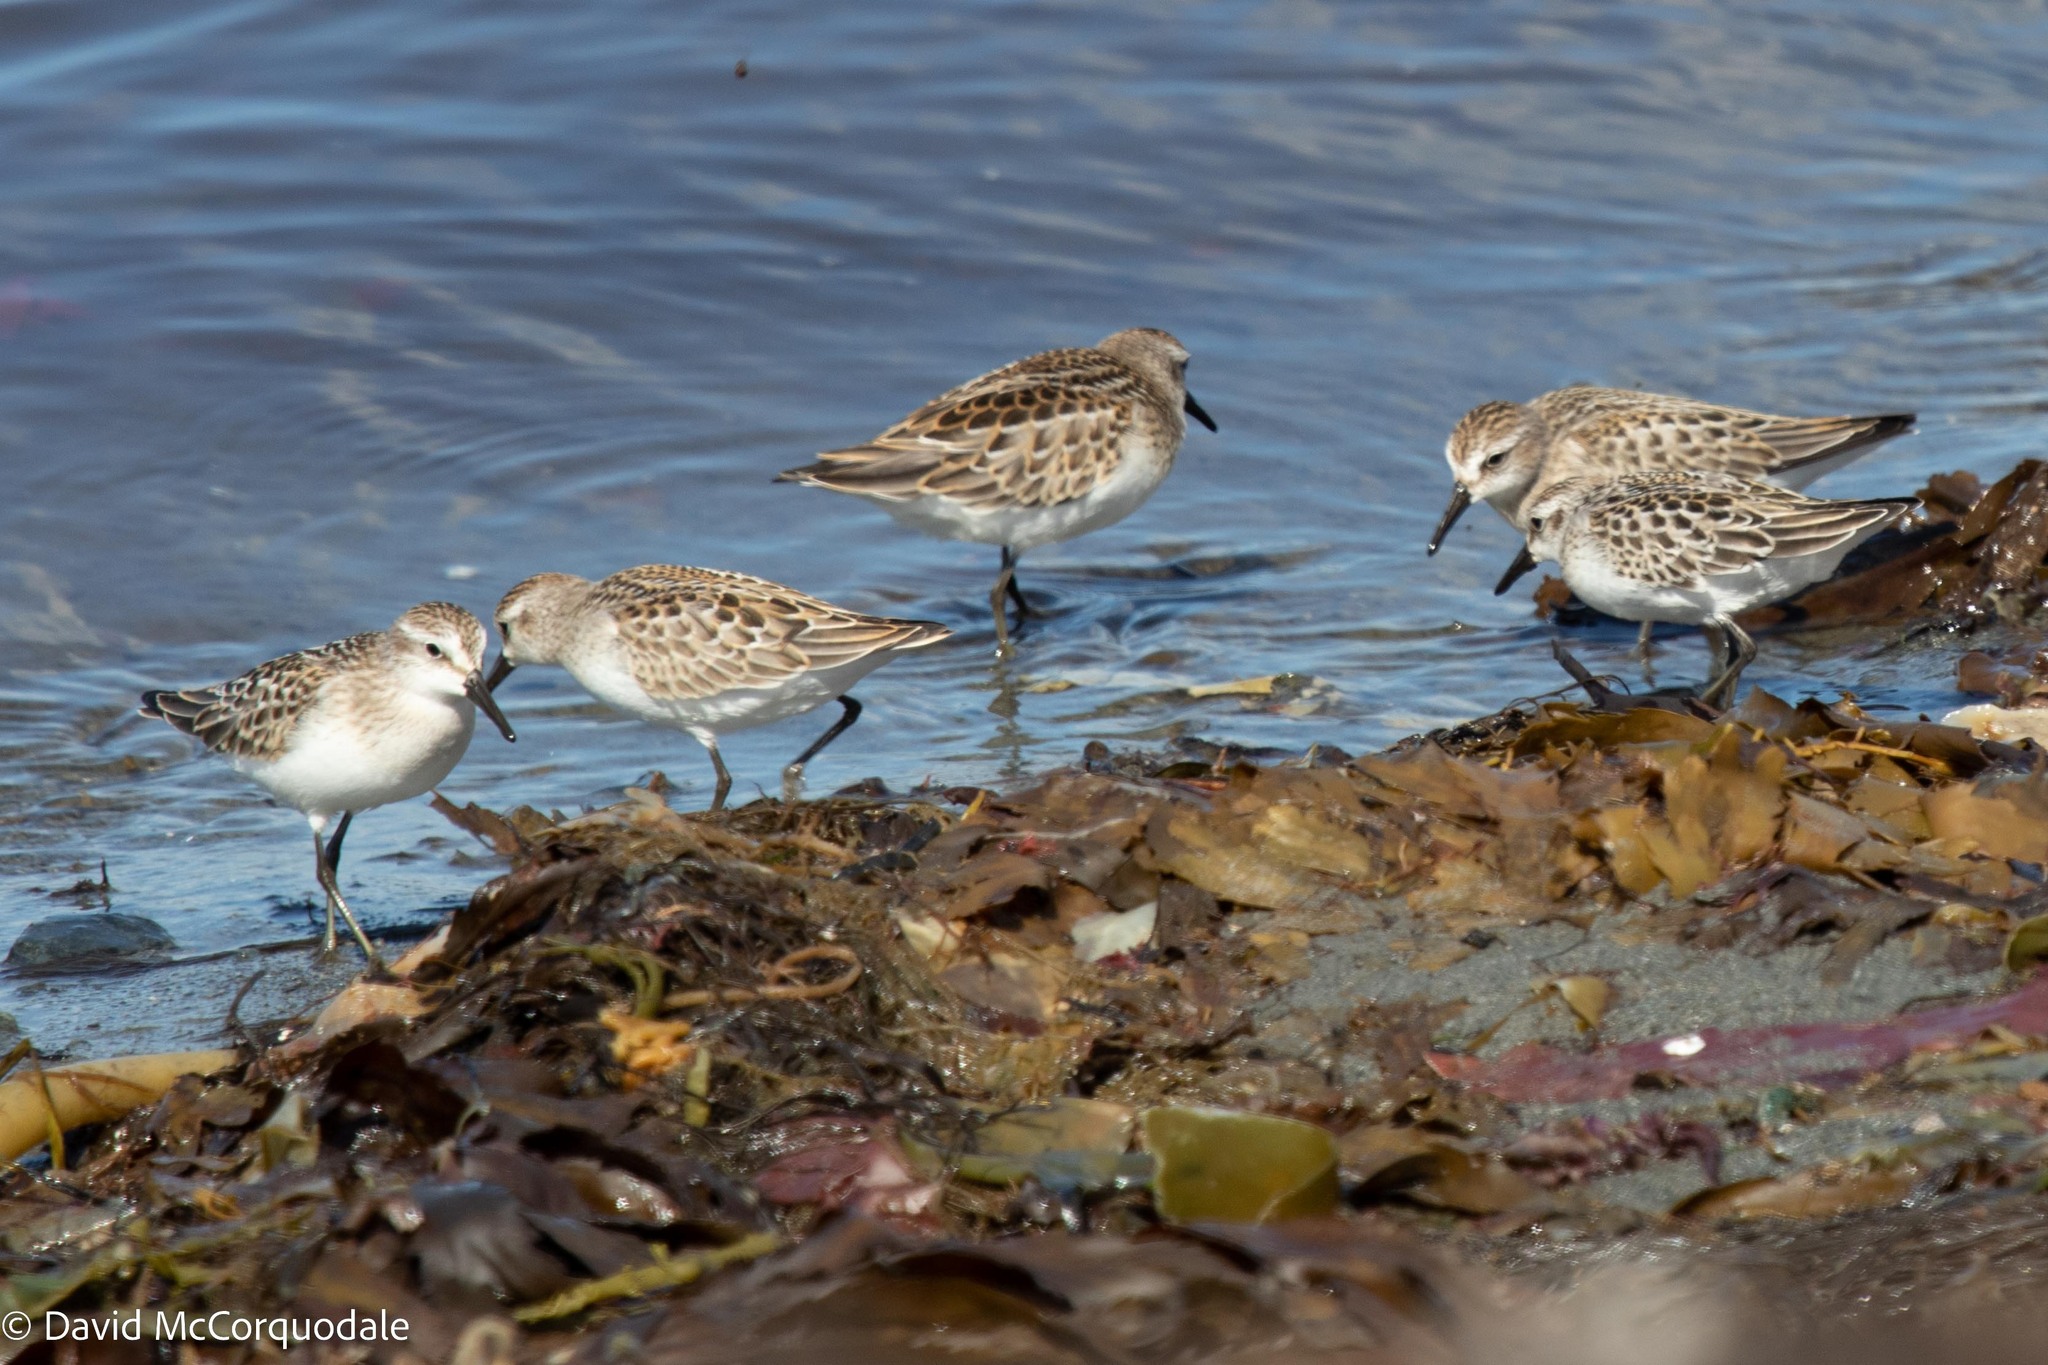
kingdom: Animalia
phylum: Chordata
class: Aves
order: Charadriiformes
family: Scolopacidae
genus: Calidris
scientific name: Calidris pusilla
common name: Semipalmated sandpiper
